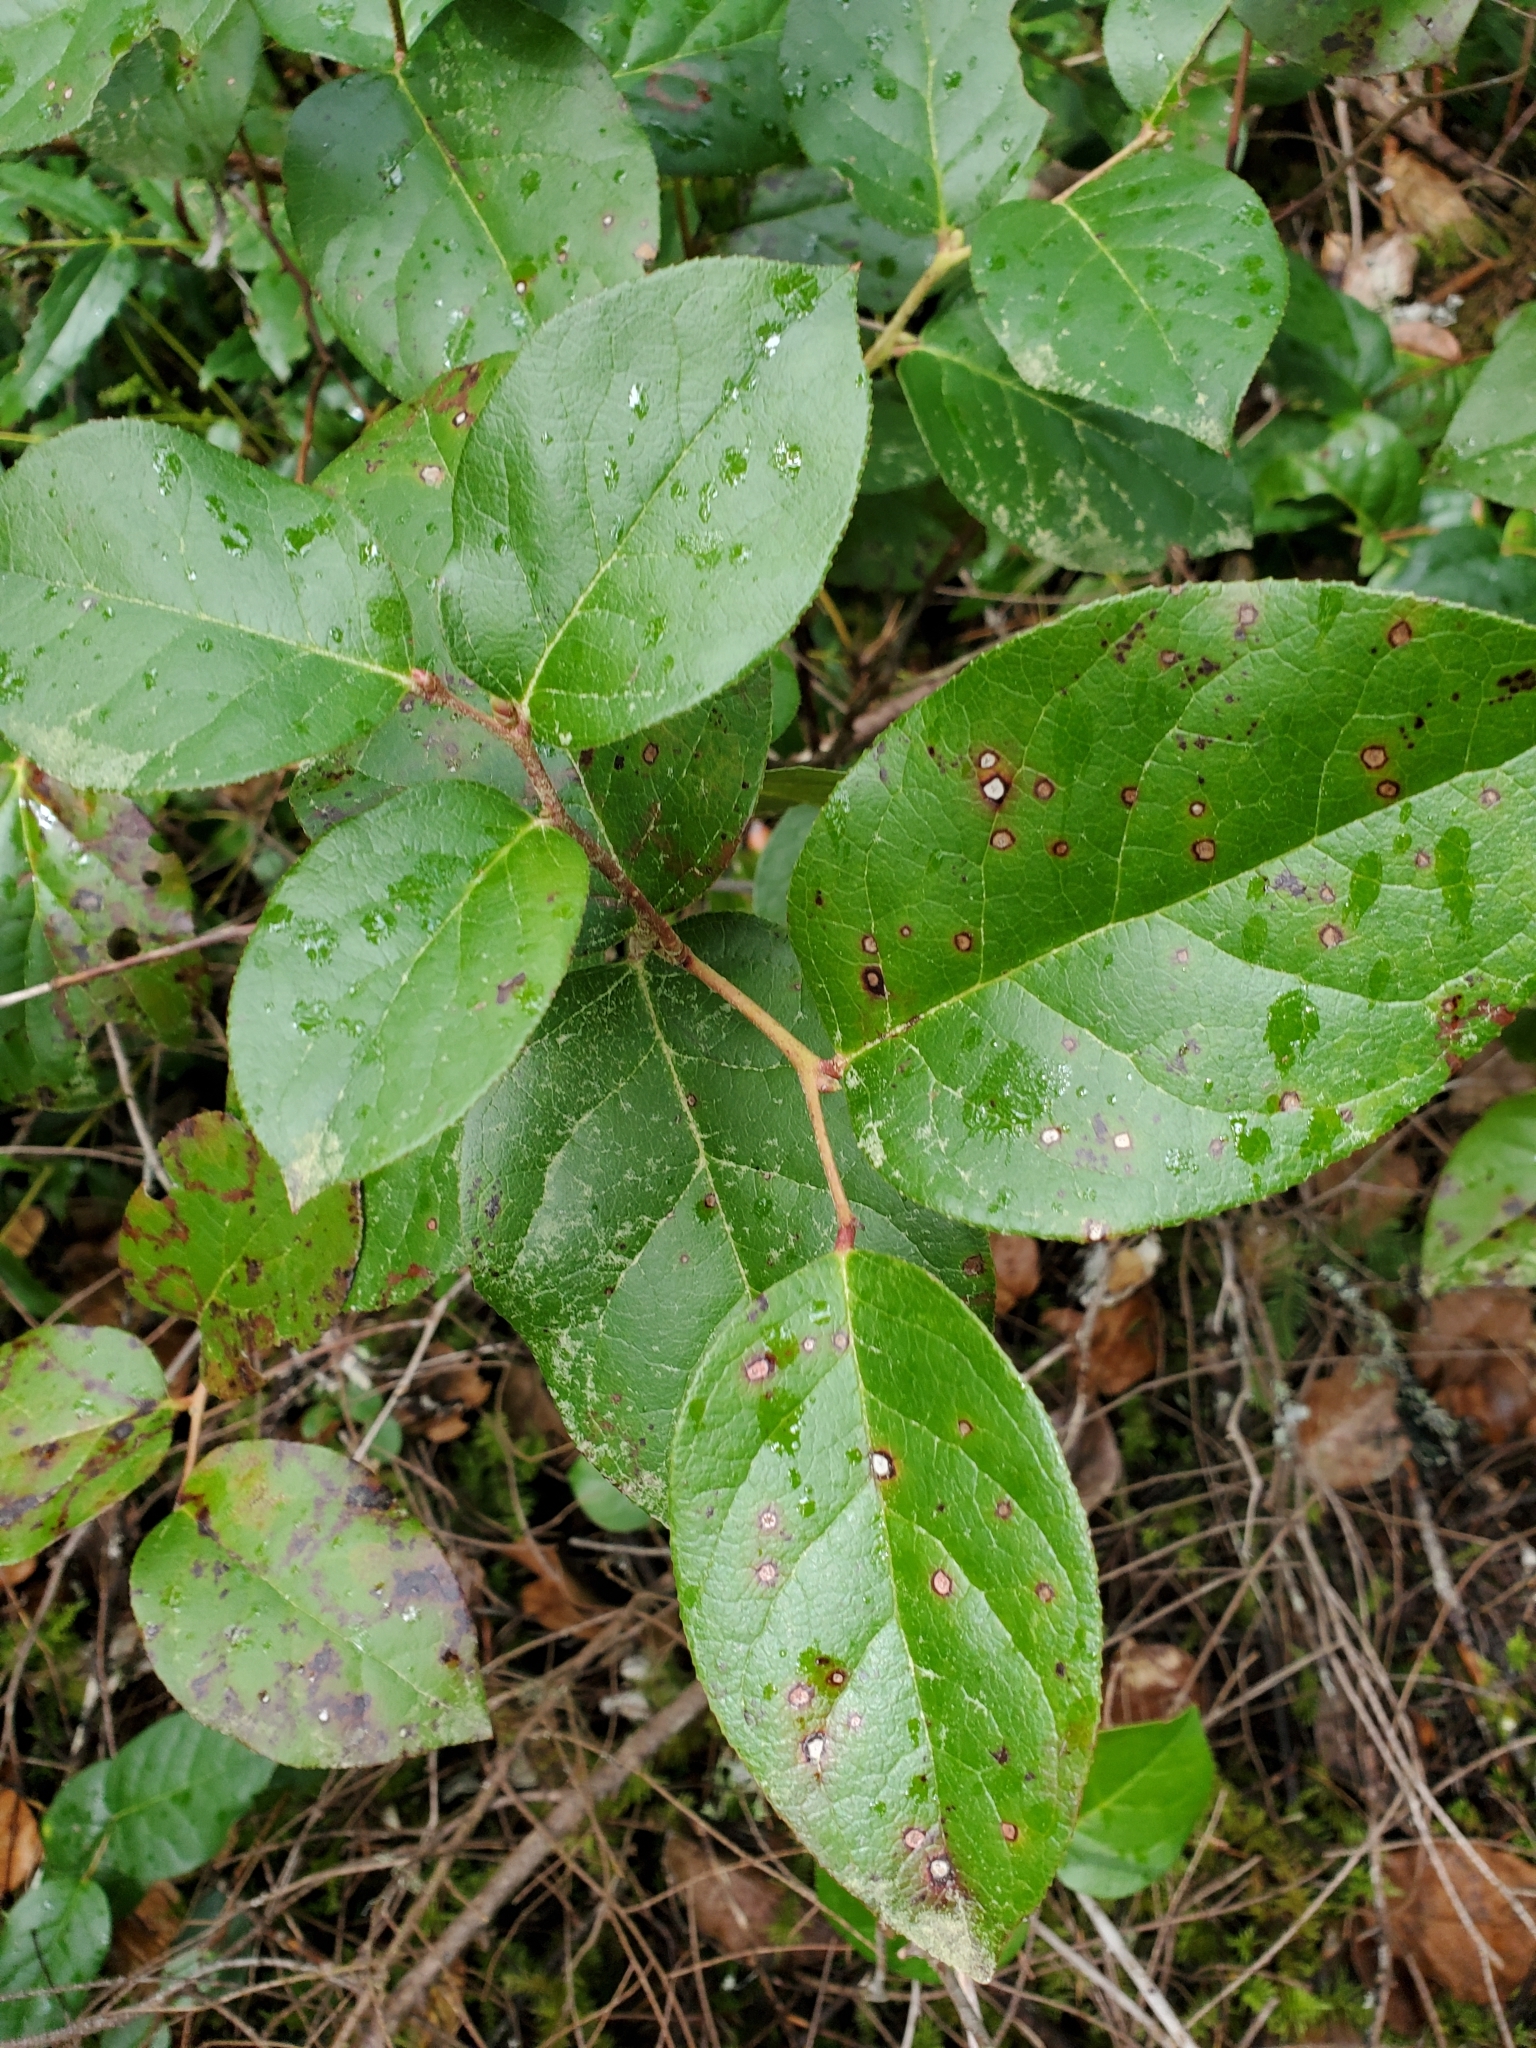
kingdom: Plantae
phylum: Tracheophyta
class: Magnoliopsida
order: Ericales
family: Ericaceae
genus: Gaultheria
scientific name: Gaultheria shallon
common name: Shallon
